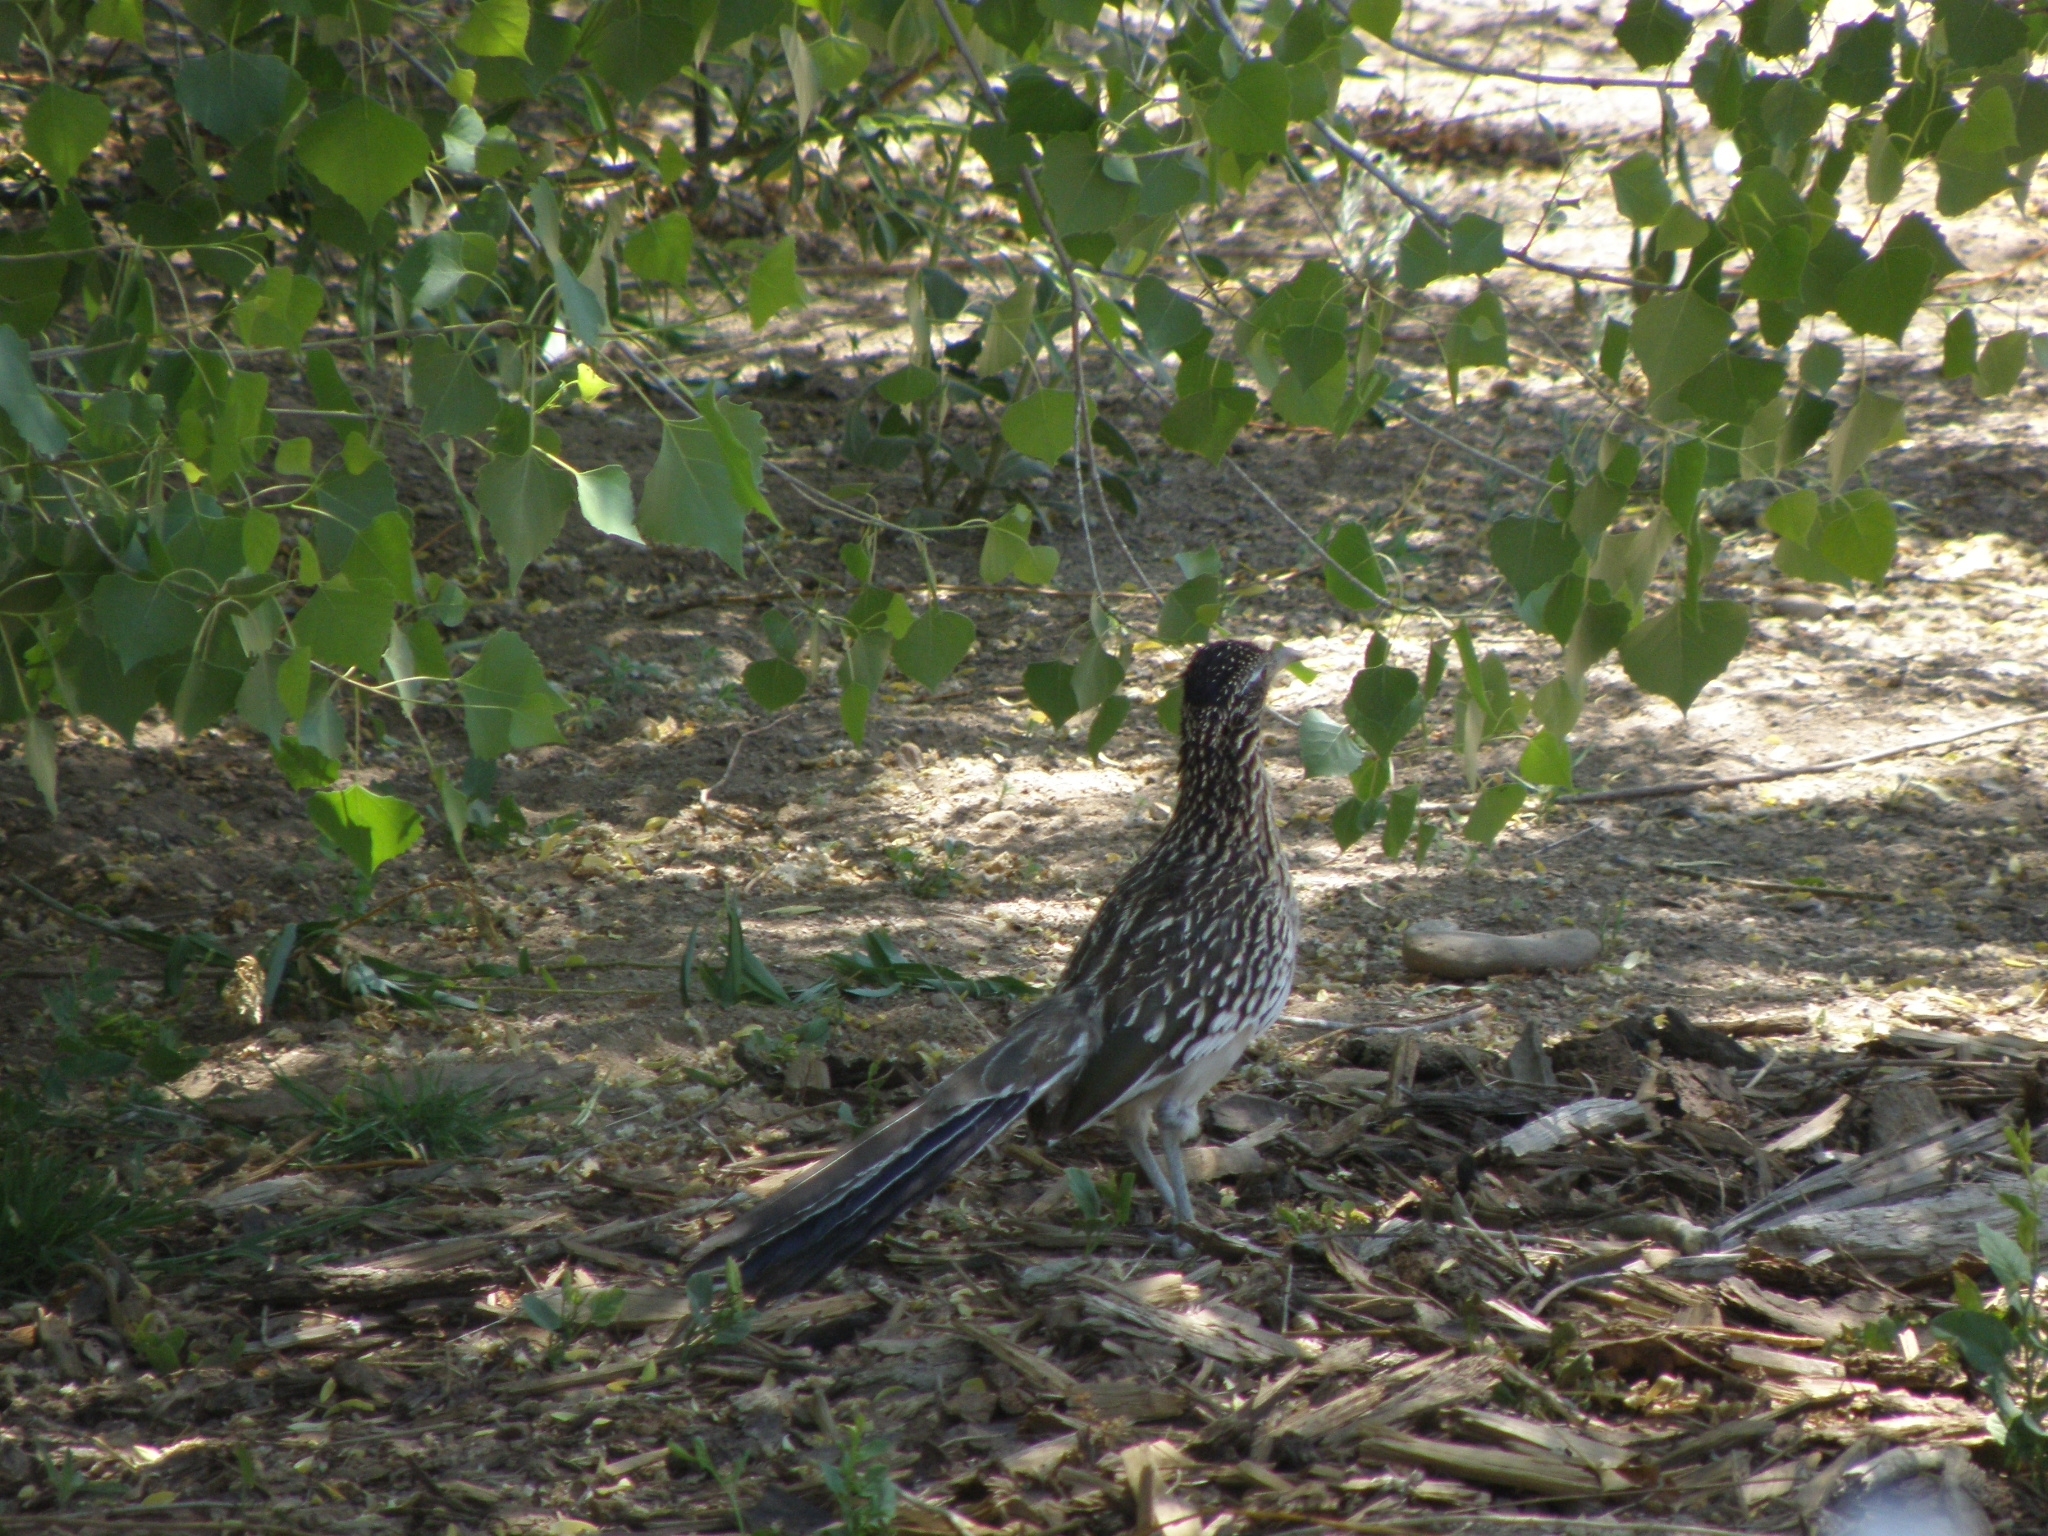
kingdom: Animalia
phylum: Chordata
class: Aves
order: Cuculiformes
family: Cuculidae
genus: Geococcyx
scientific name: Geococcyx californianus
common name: Greater roadrunner
